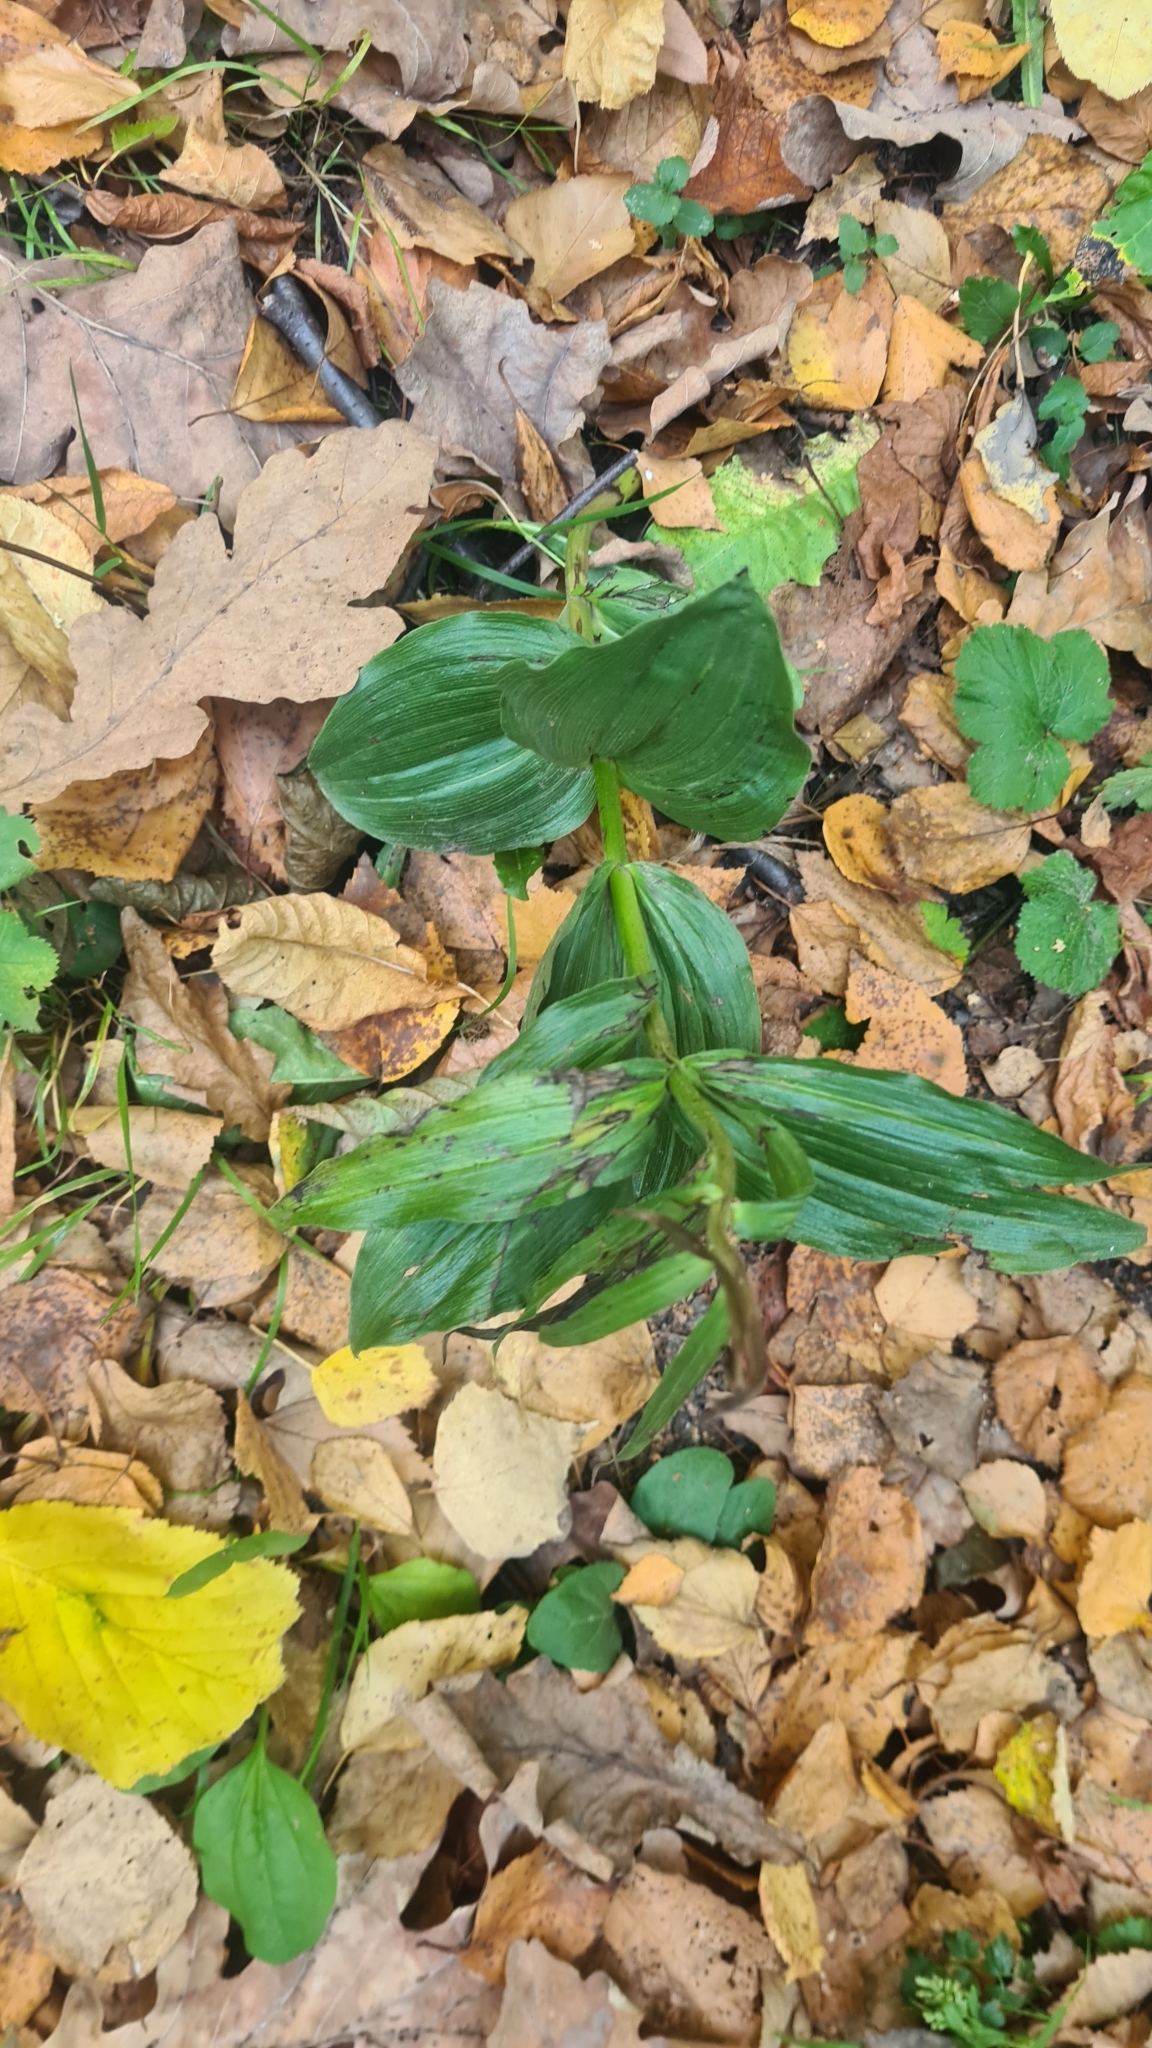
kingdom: Plantae
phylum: Tracheophyta
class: Liliopsida
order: Asparagales
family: Orchidaceae
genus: Epipactis
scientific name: Epipactis helleborine
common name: Broad-leaved helleborine
